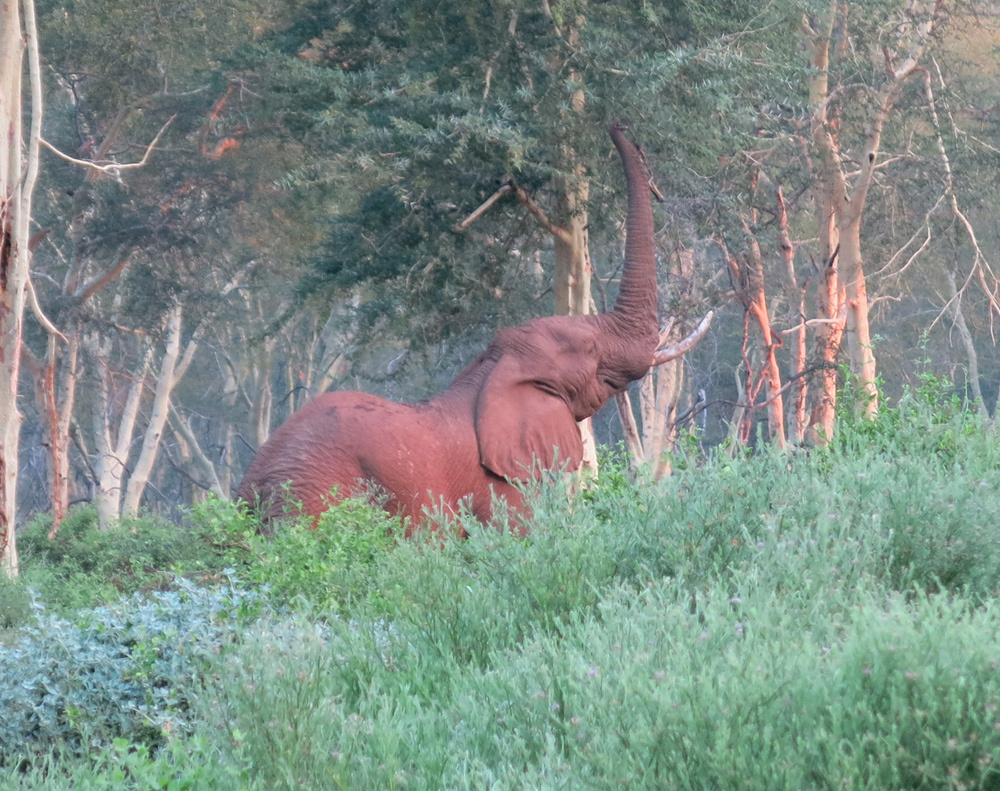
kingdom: Animalia
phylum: Chordata
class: Mammalia
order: Proboscidea
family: Elephantidae
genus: Loxodonta
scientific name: Loxodonta africana
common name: African elephant
